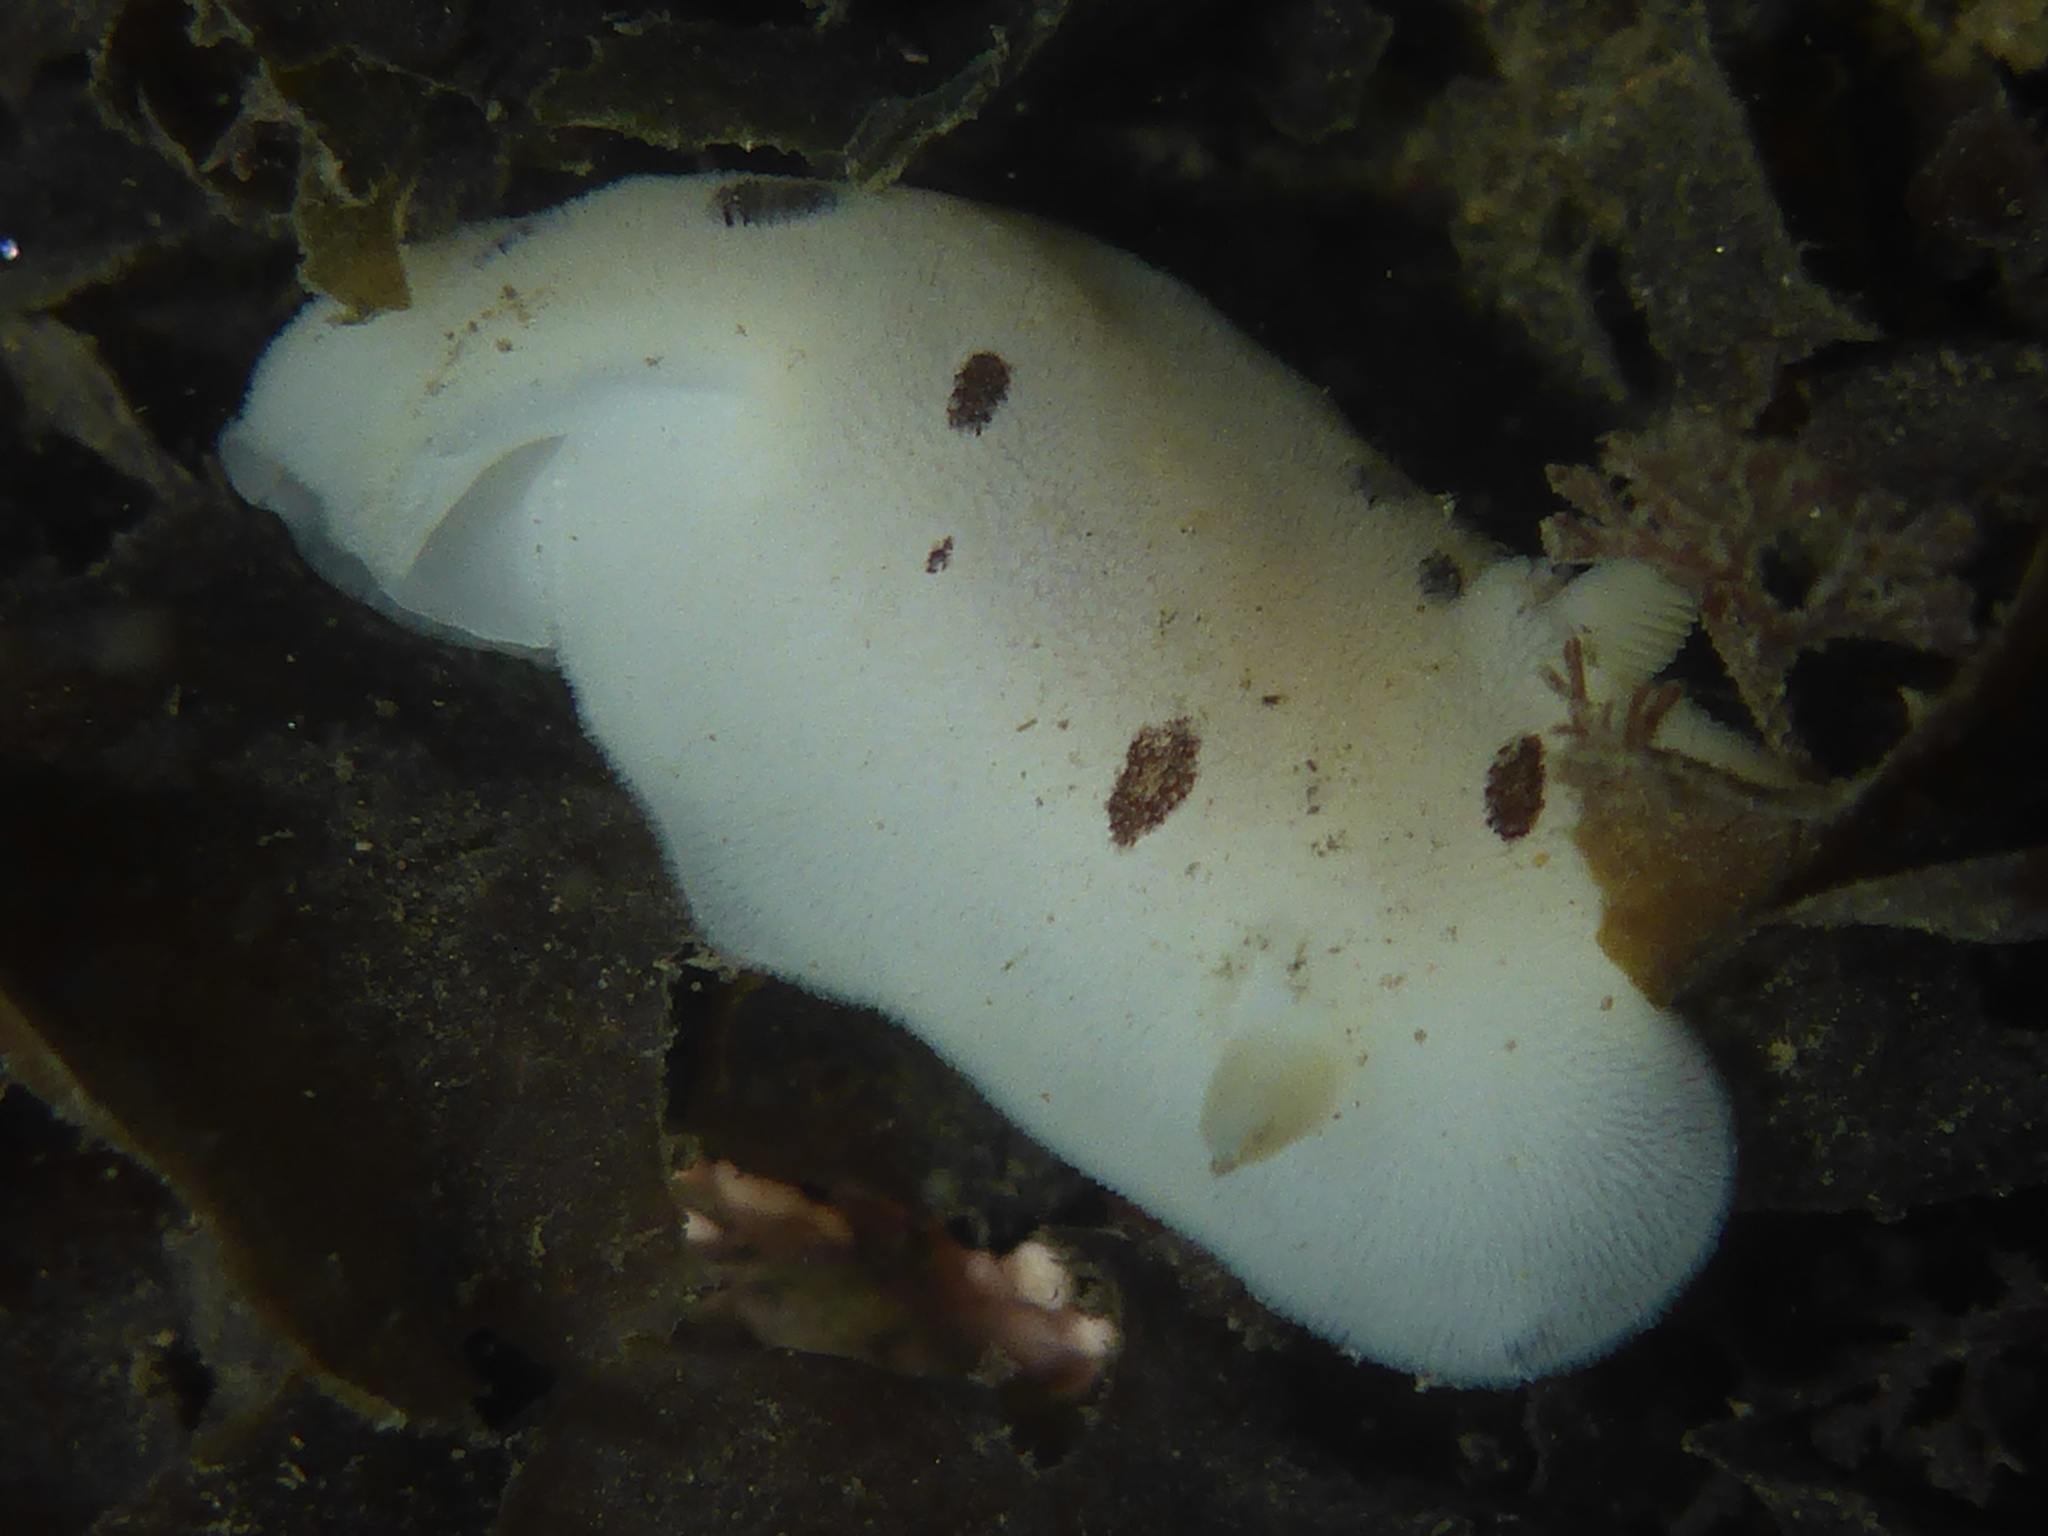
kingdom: Animalia
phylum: Mollusca
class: Gastropoda
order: Nudibranchia
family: Discodorididae
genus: Diaulula
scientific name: Diaulula sandiegensis
